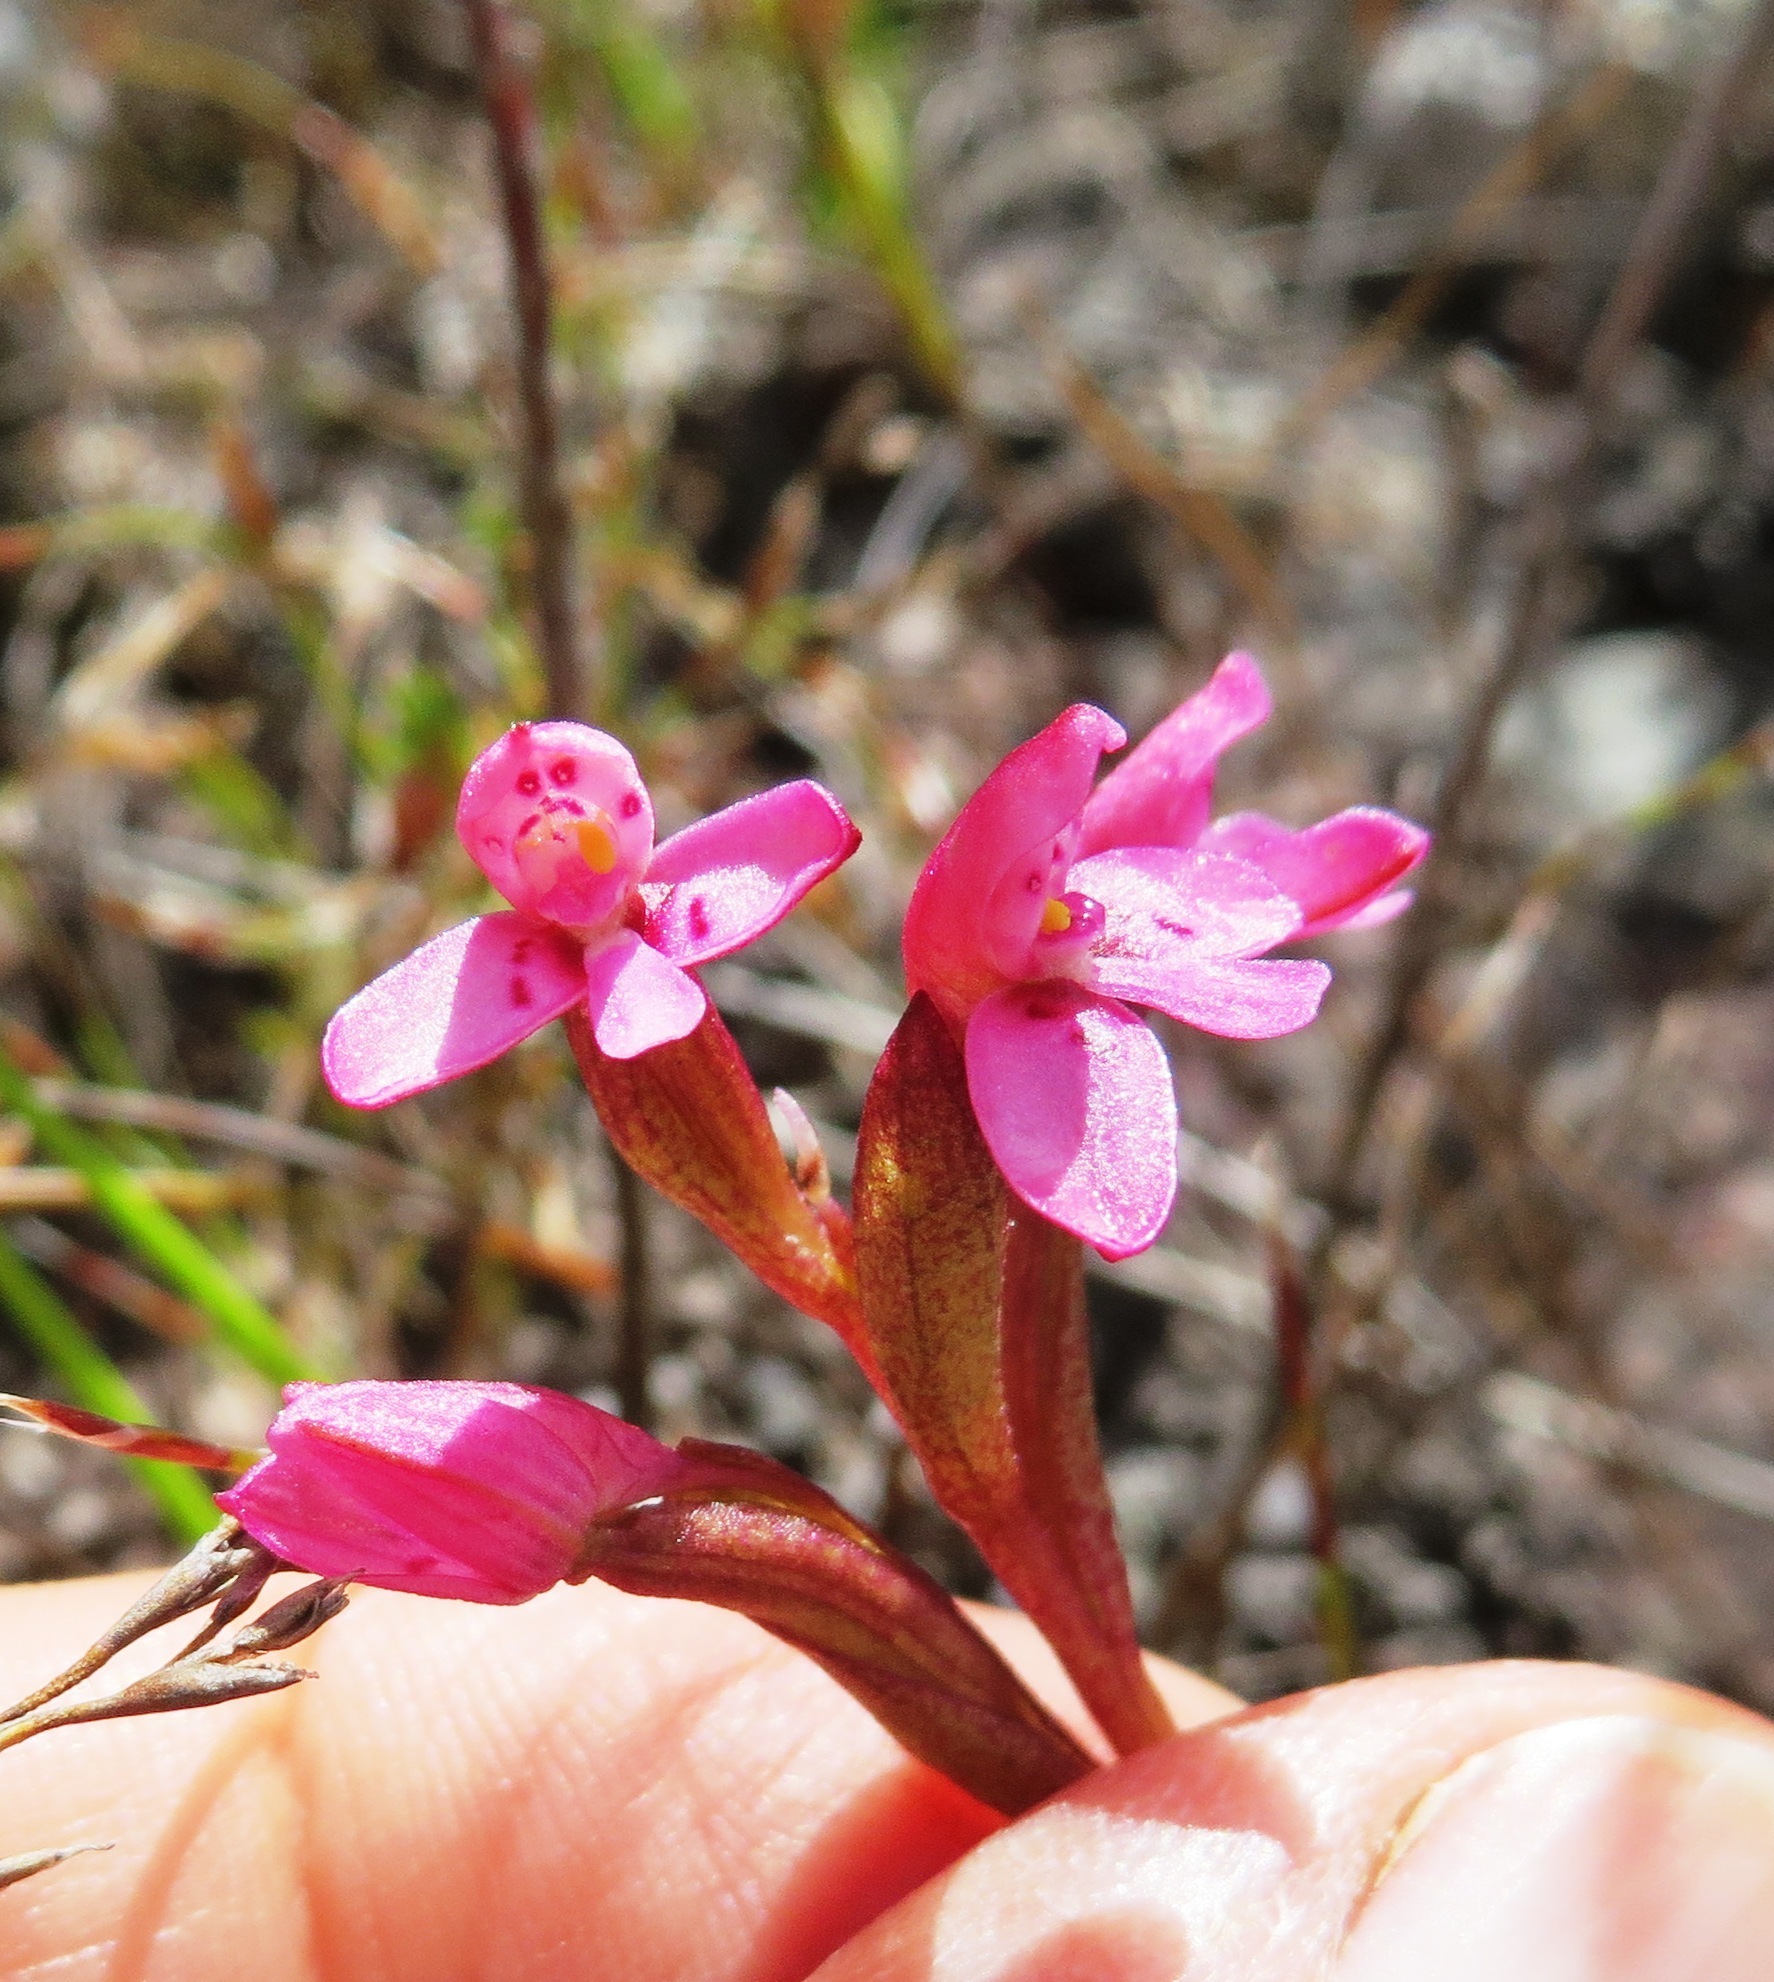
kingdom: Plantae
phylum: Tracheophyta
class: Liliopsida
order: Asparagales
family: Orchidaceae
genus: Disa
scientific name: Disa vaginata
